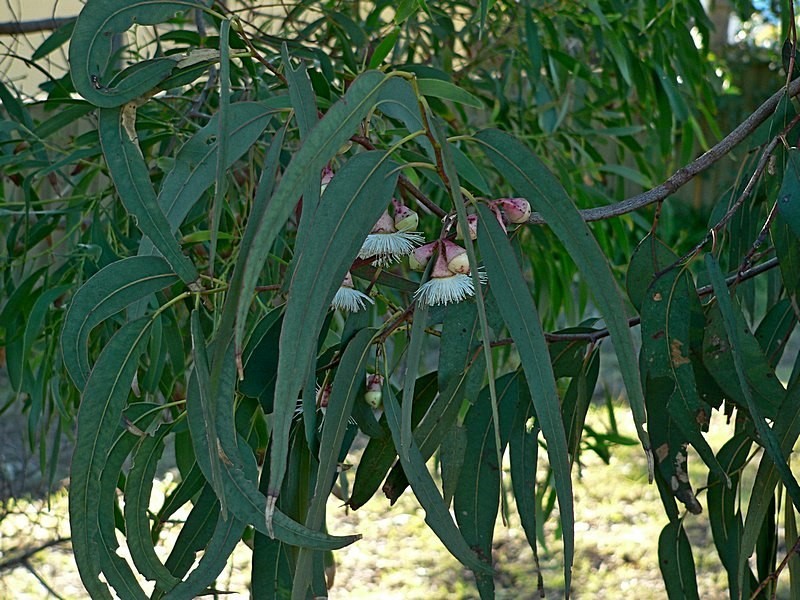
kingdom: Plantae
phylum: Tracheophyta
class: Magnoliopsida
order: Myrtales
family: Myrtaceae
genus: Eucalyptus
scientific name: Eucalyptus longifolia
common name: Woollybutt
